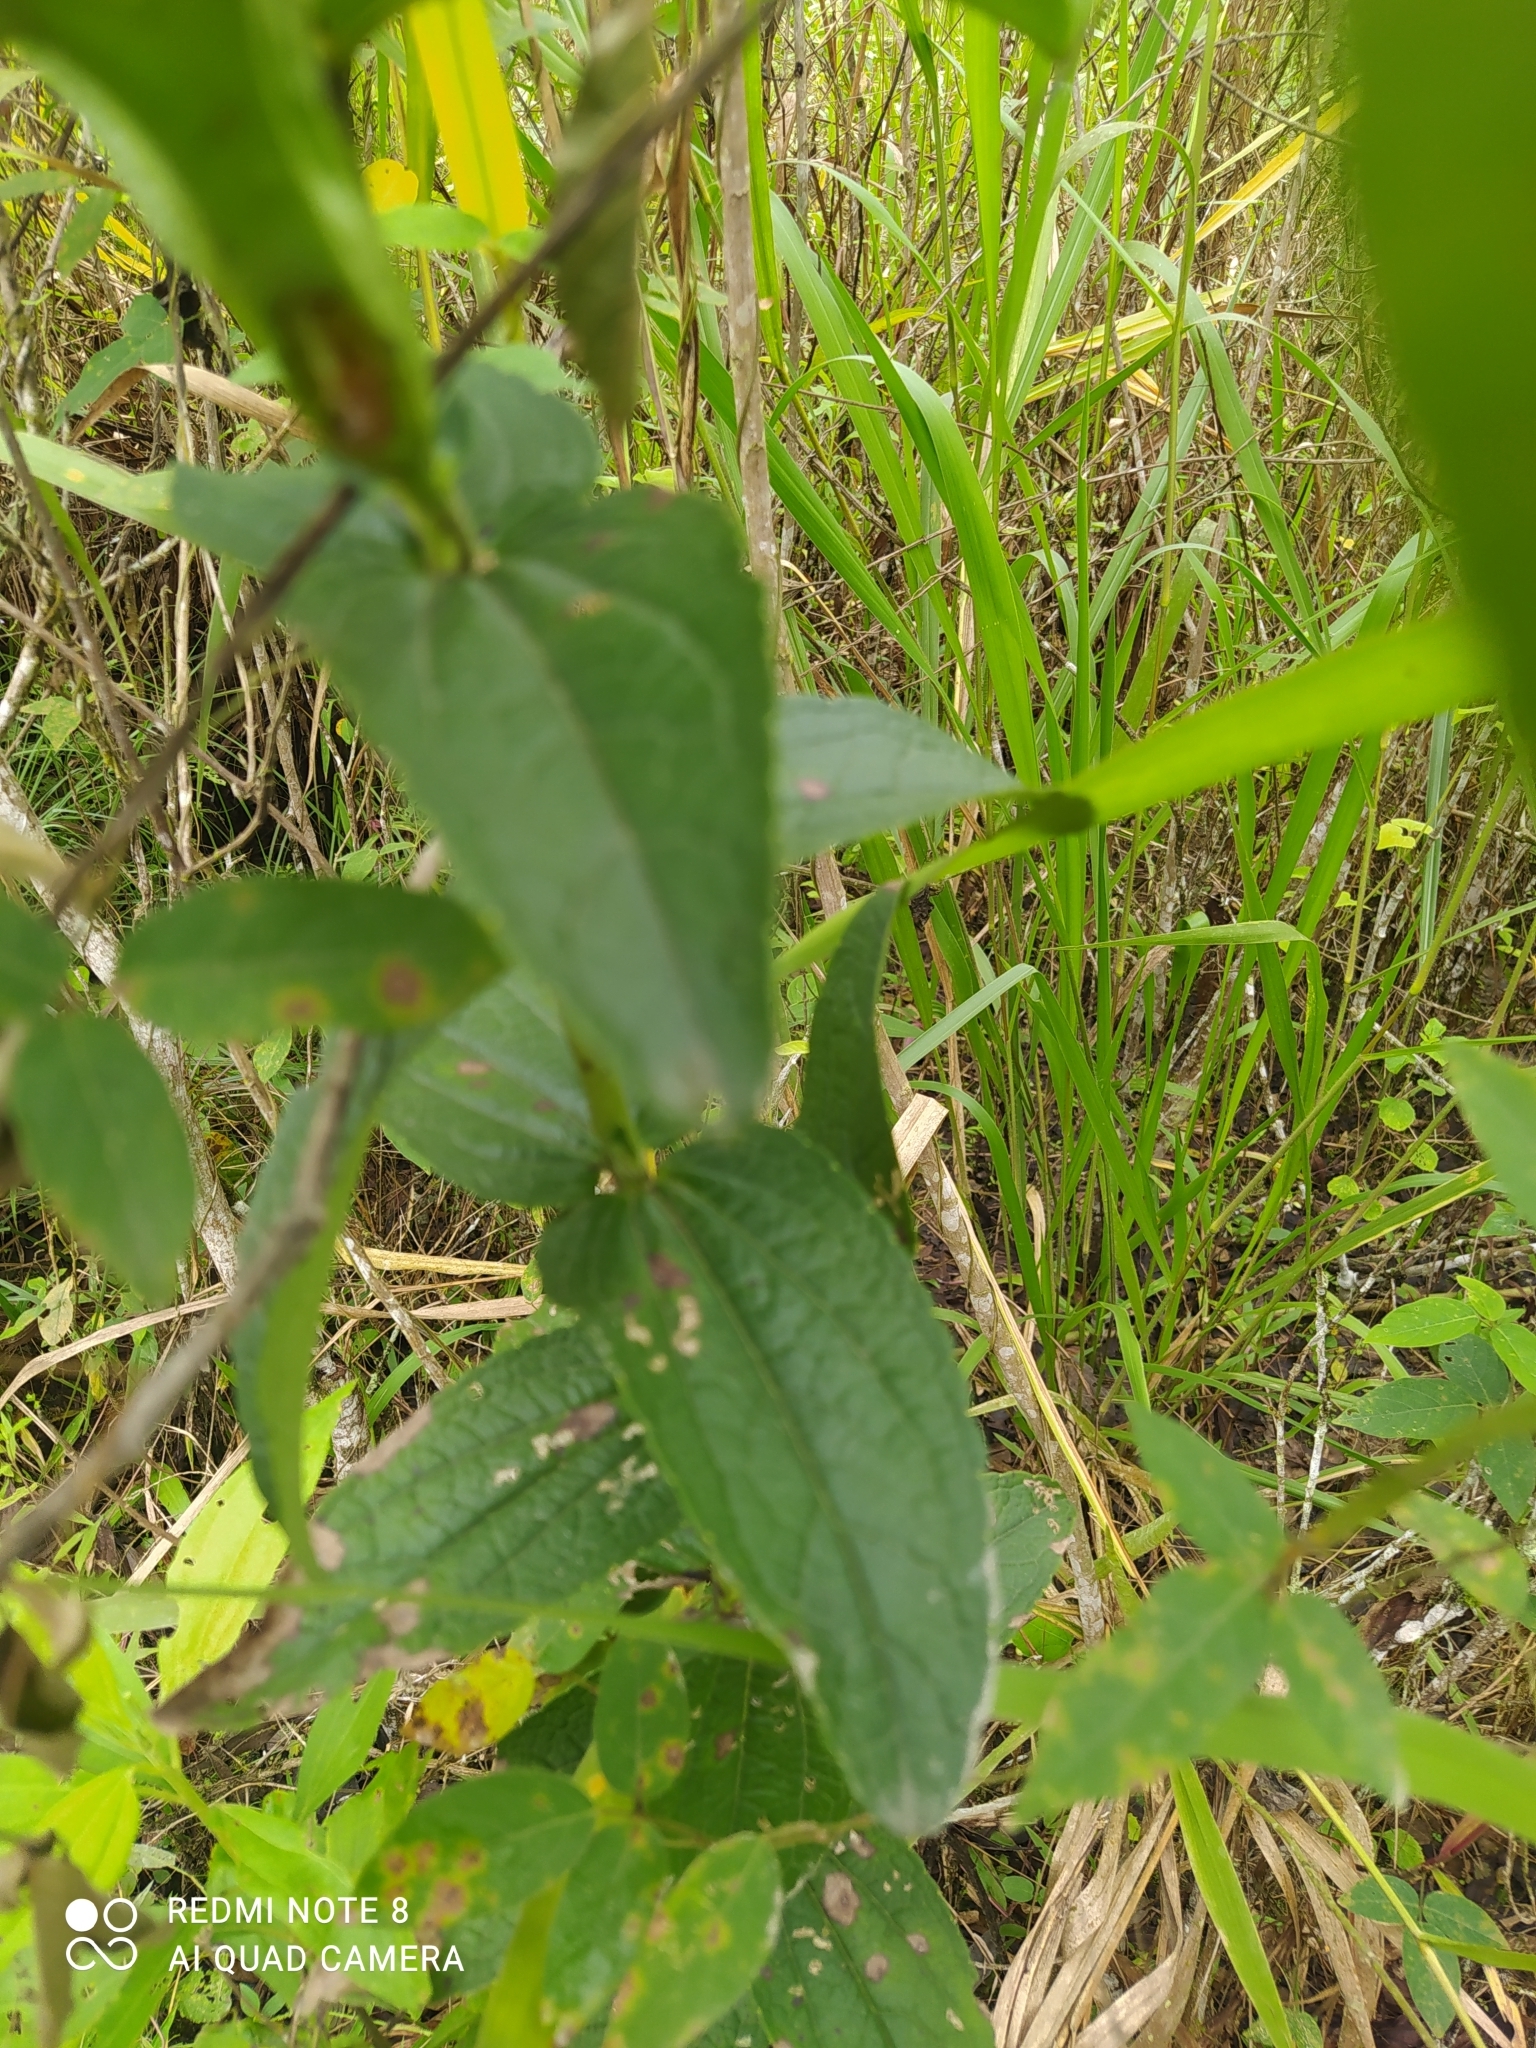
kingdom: Plantae
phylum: Tracheophyta
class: Magnoliopsida
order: Lamiales
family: Orobanchaceae
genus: Escobedia
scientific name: Escobedia grandiflora
